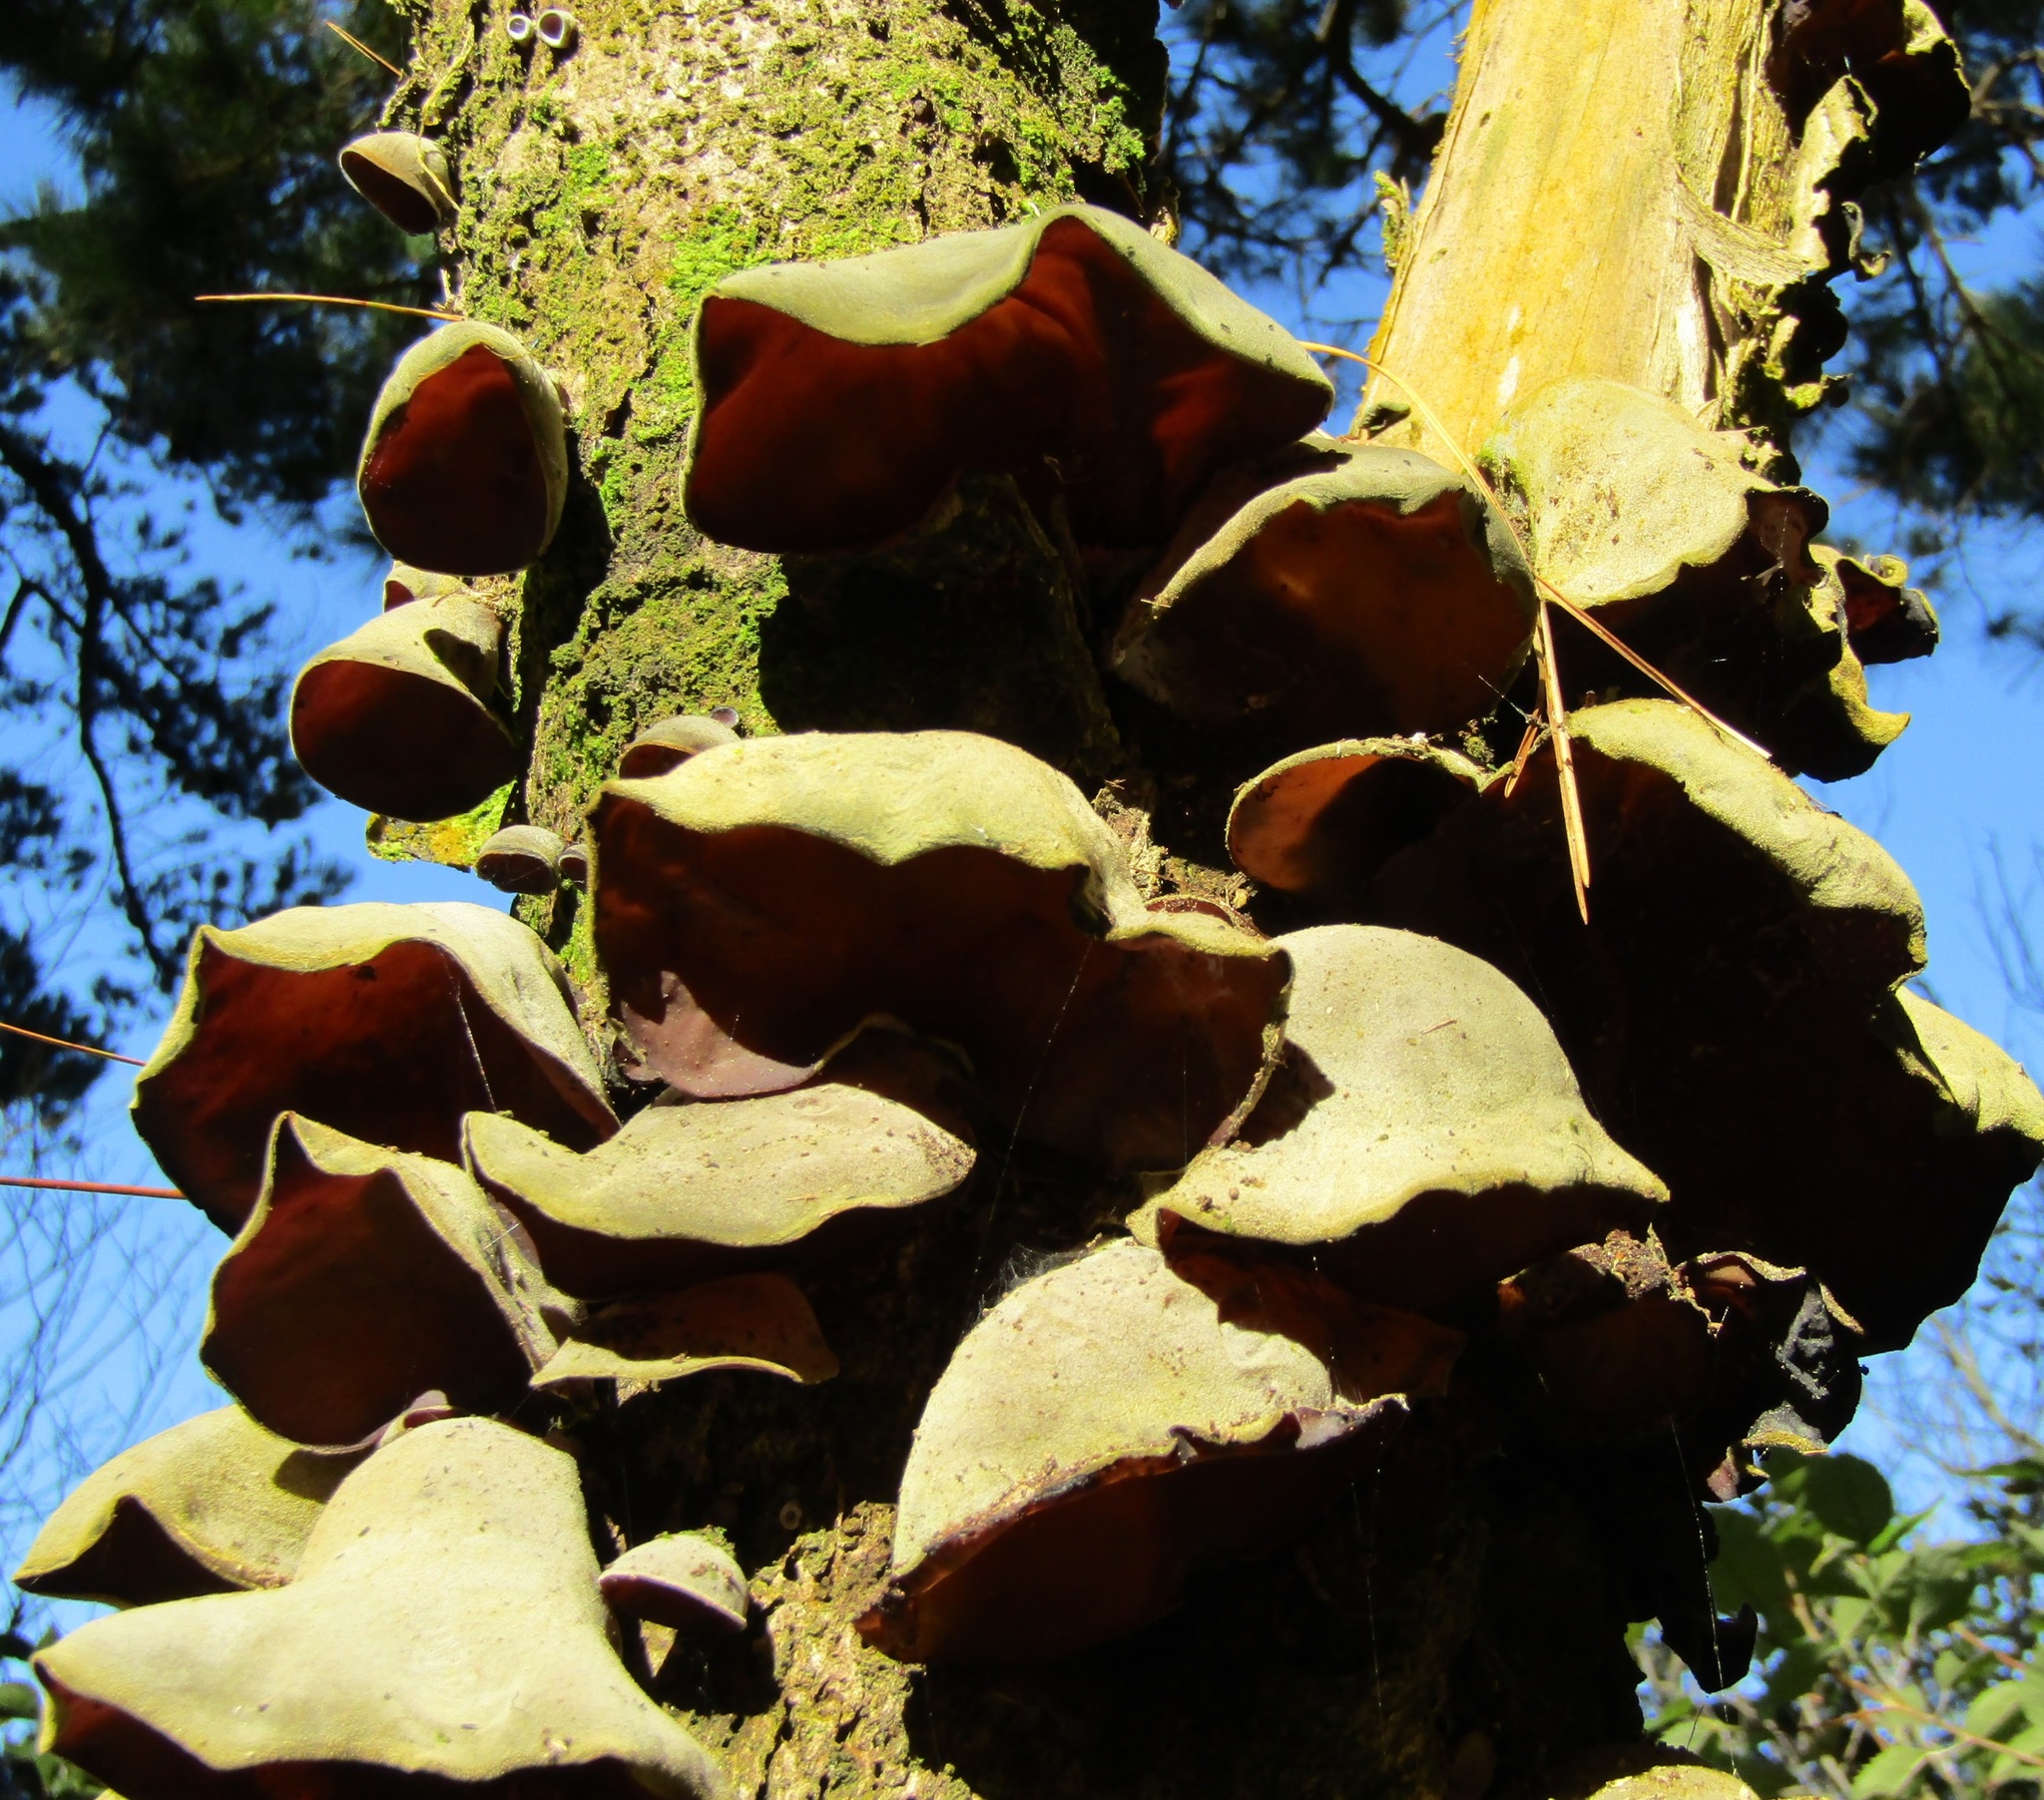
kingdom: Fungi
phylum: Basidiomycota
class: Agaricomycetes
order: Auriculariales
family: Auriculariaceae
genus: Auricularia
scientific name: Auricularia cornea
